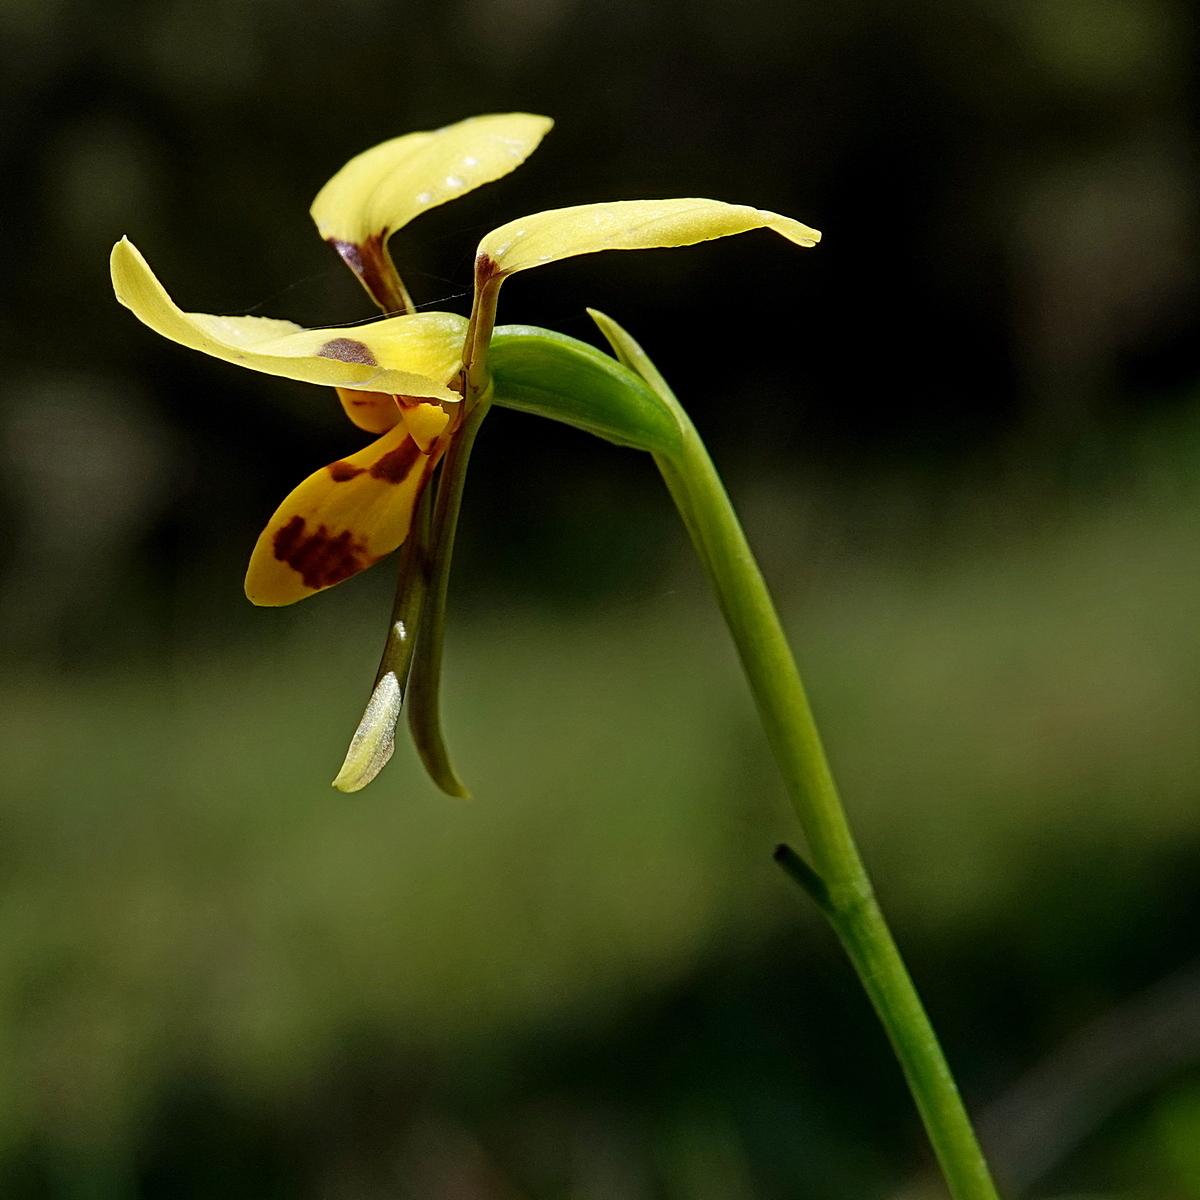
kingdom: Plantae
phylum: Tracheophyta
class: Liliopsida
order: Asparagales
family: Orchidaceae
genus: Diuris
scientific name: Diuris sulphurea
